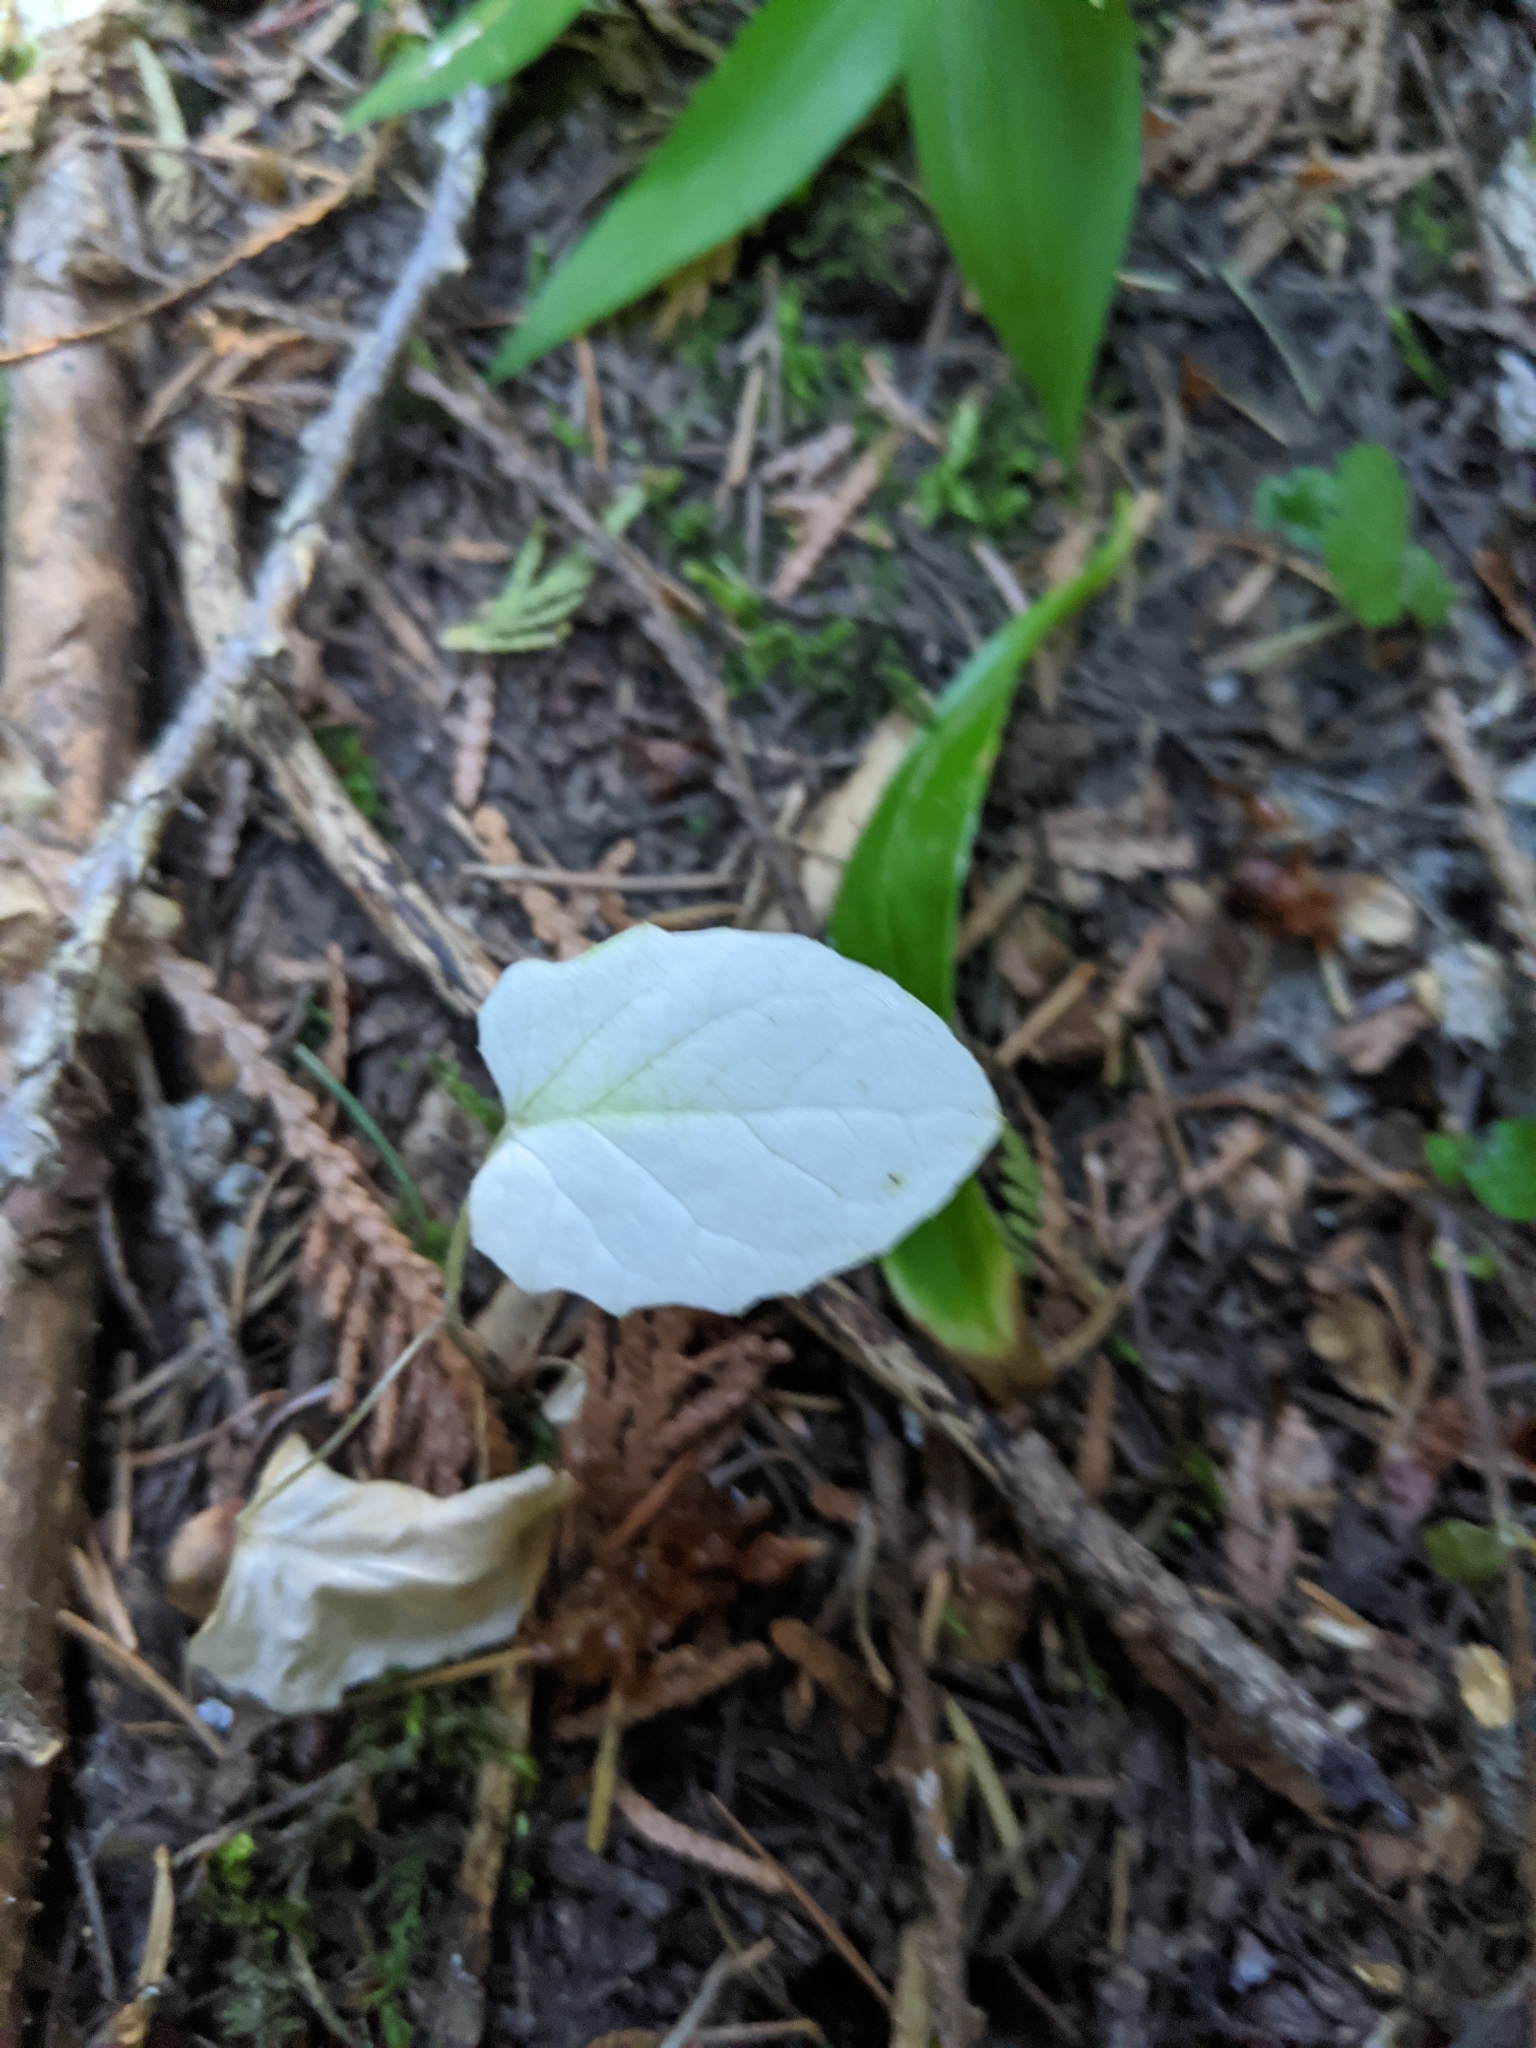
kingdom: Plantae
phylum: Tracheophyta
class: Magnoliopsida
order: Asterales
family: Asteraceae
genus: Adenocaulon
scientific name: Adenocaulon bicolor
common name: Trailplant
